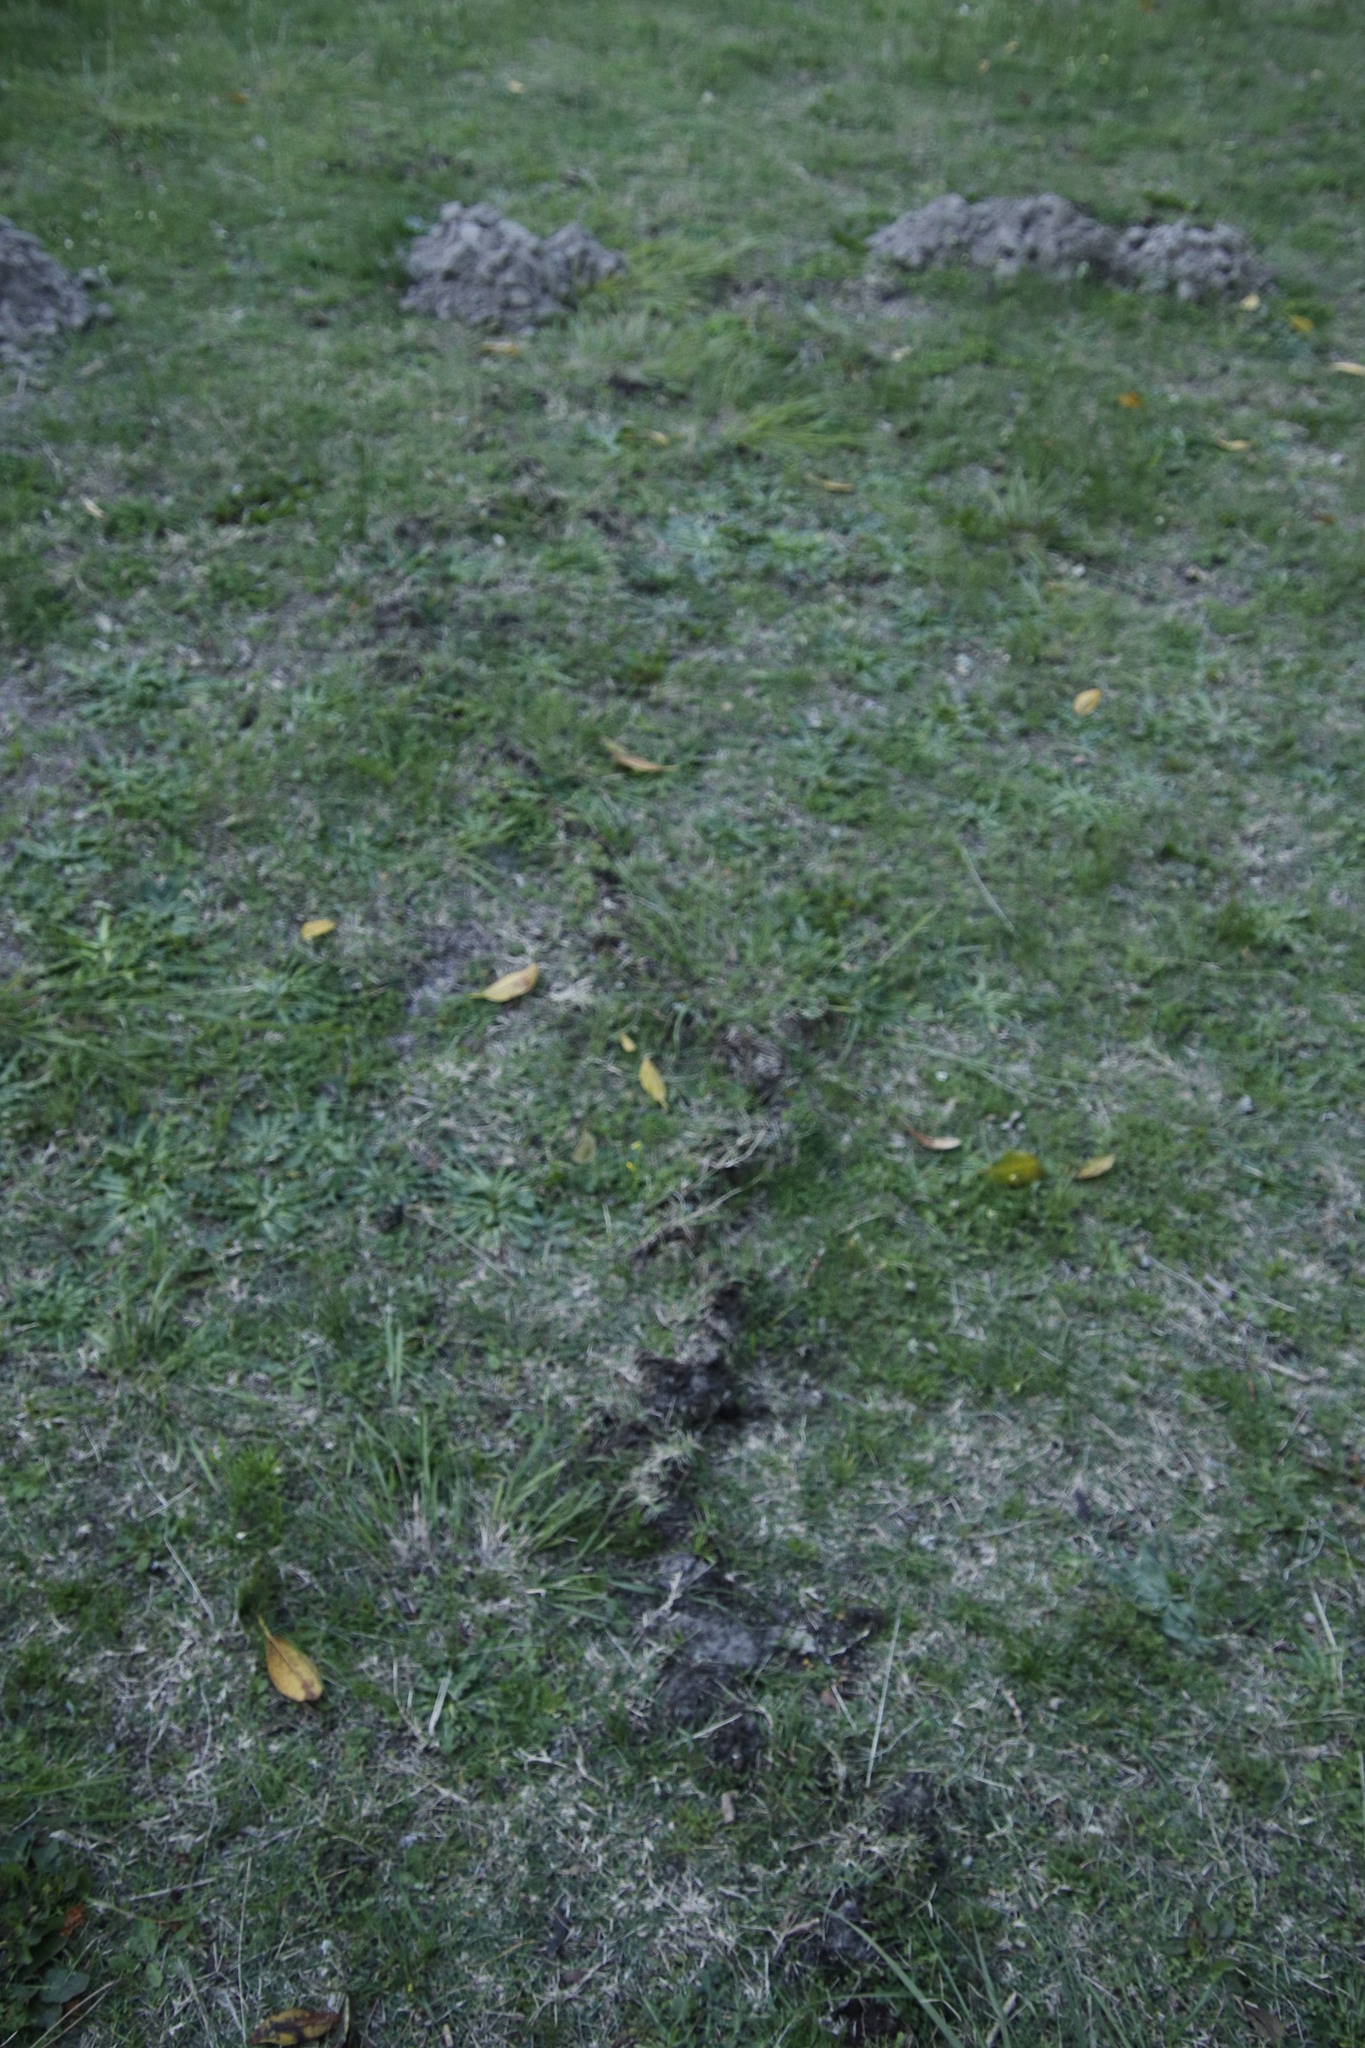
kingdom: Animalia
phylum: Chordata
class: Mammalia
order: Afrosoricida
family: Chrysochloridae
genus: Chrysochloris
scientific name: Chrysochloris asiatica
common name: Cape golden mole
